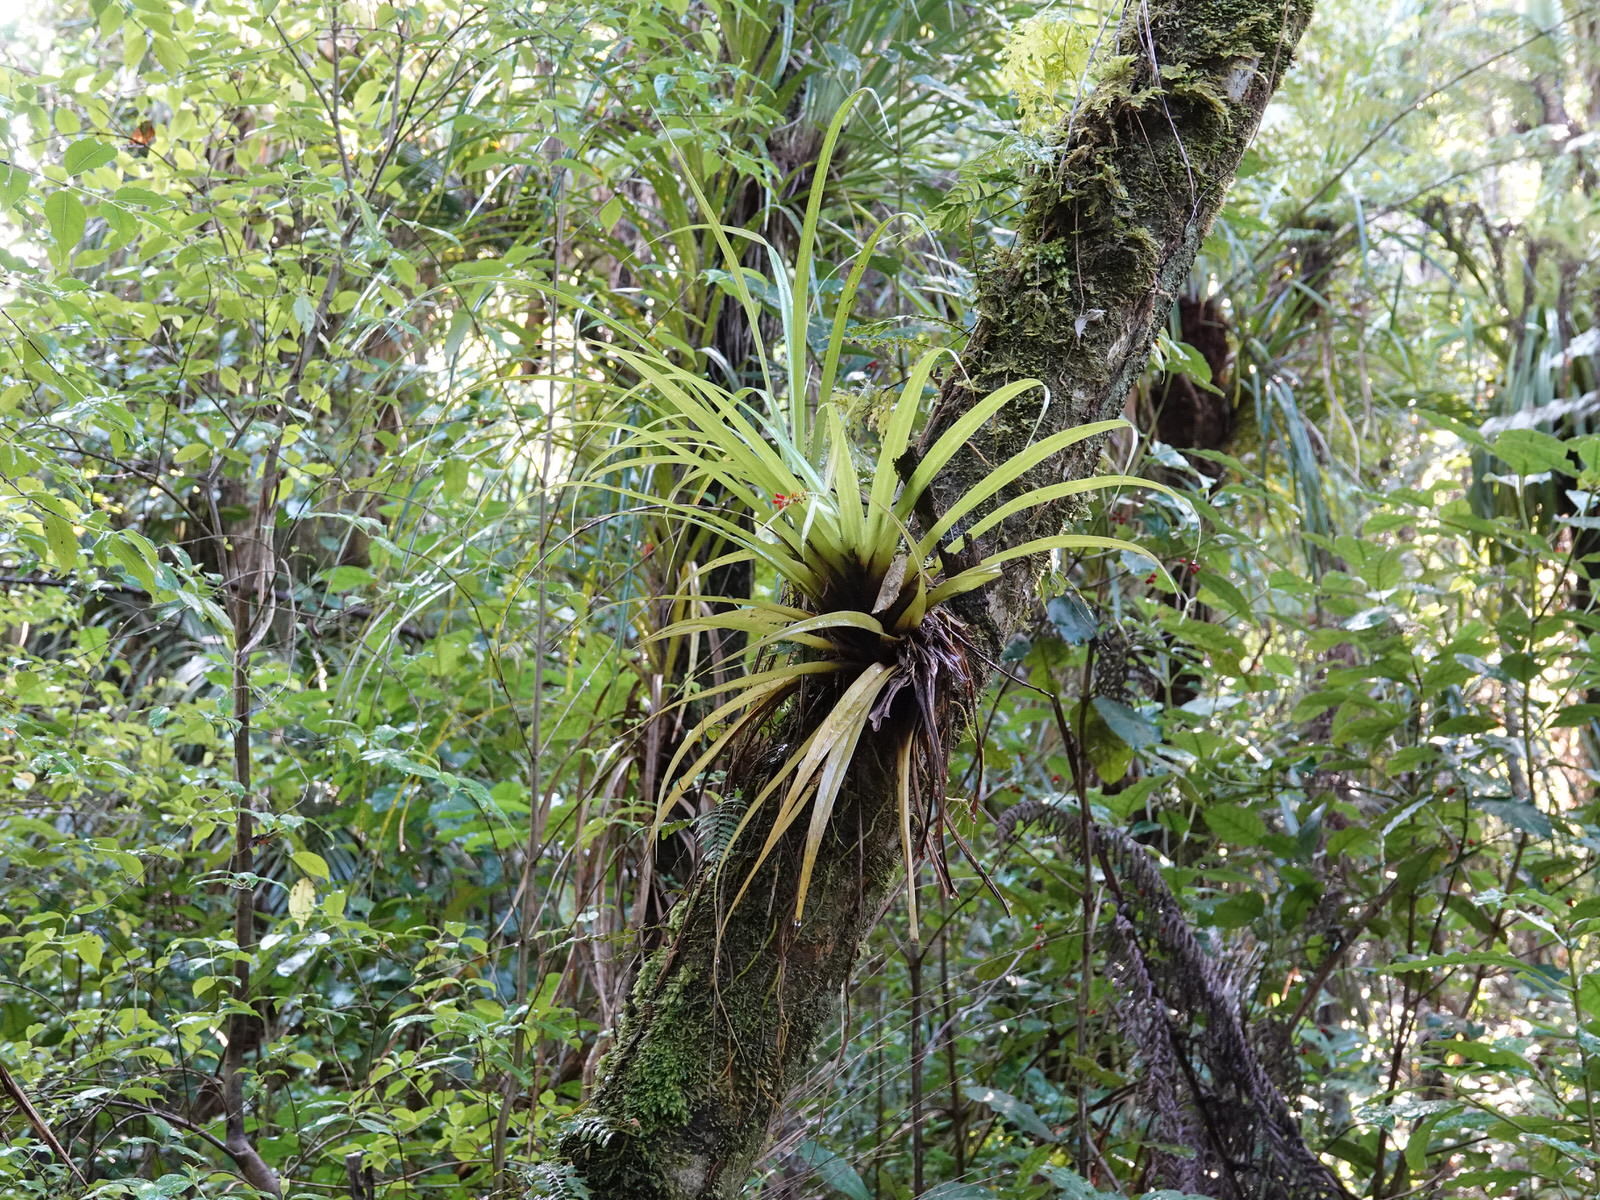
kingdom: Plantae
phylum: Tracheophyta
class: Liliopsida
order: Asparagales
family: Asteliaceae
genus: Astelia
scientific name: Astelia hastata
